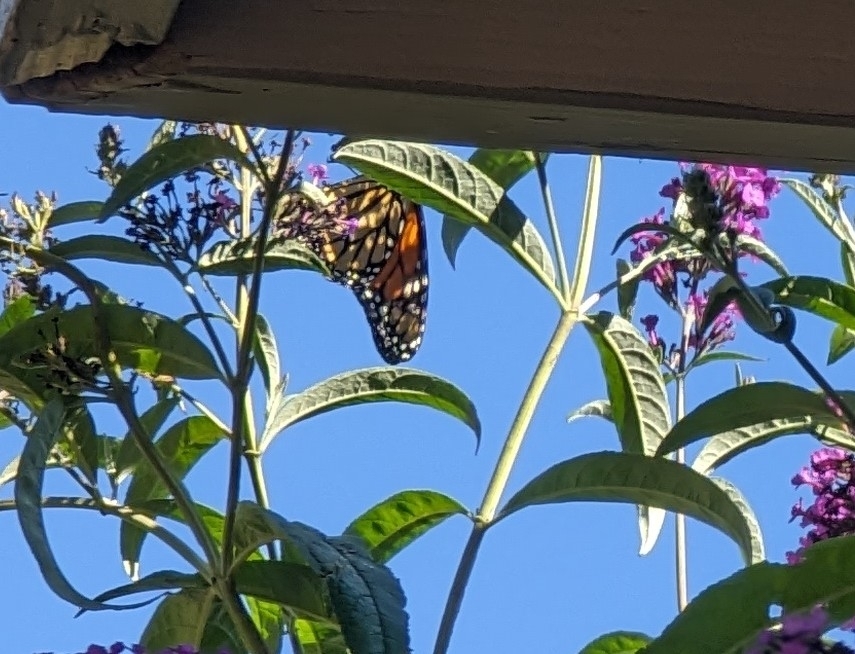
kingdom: Animalia
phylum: Arthropoda
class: Insecta
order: Lepidoptera
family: Nymphalidae
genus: Danaus
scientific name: Danaus plexippus
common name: Monarch
